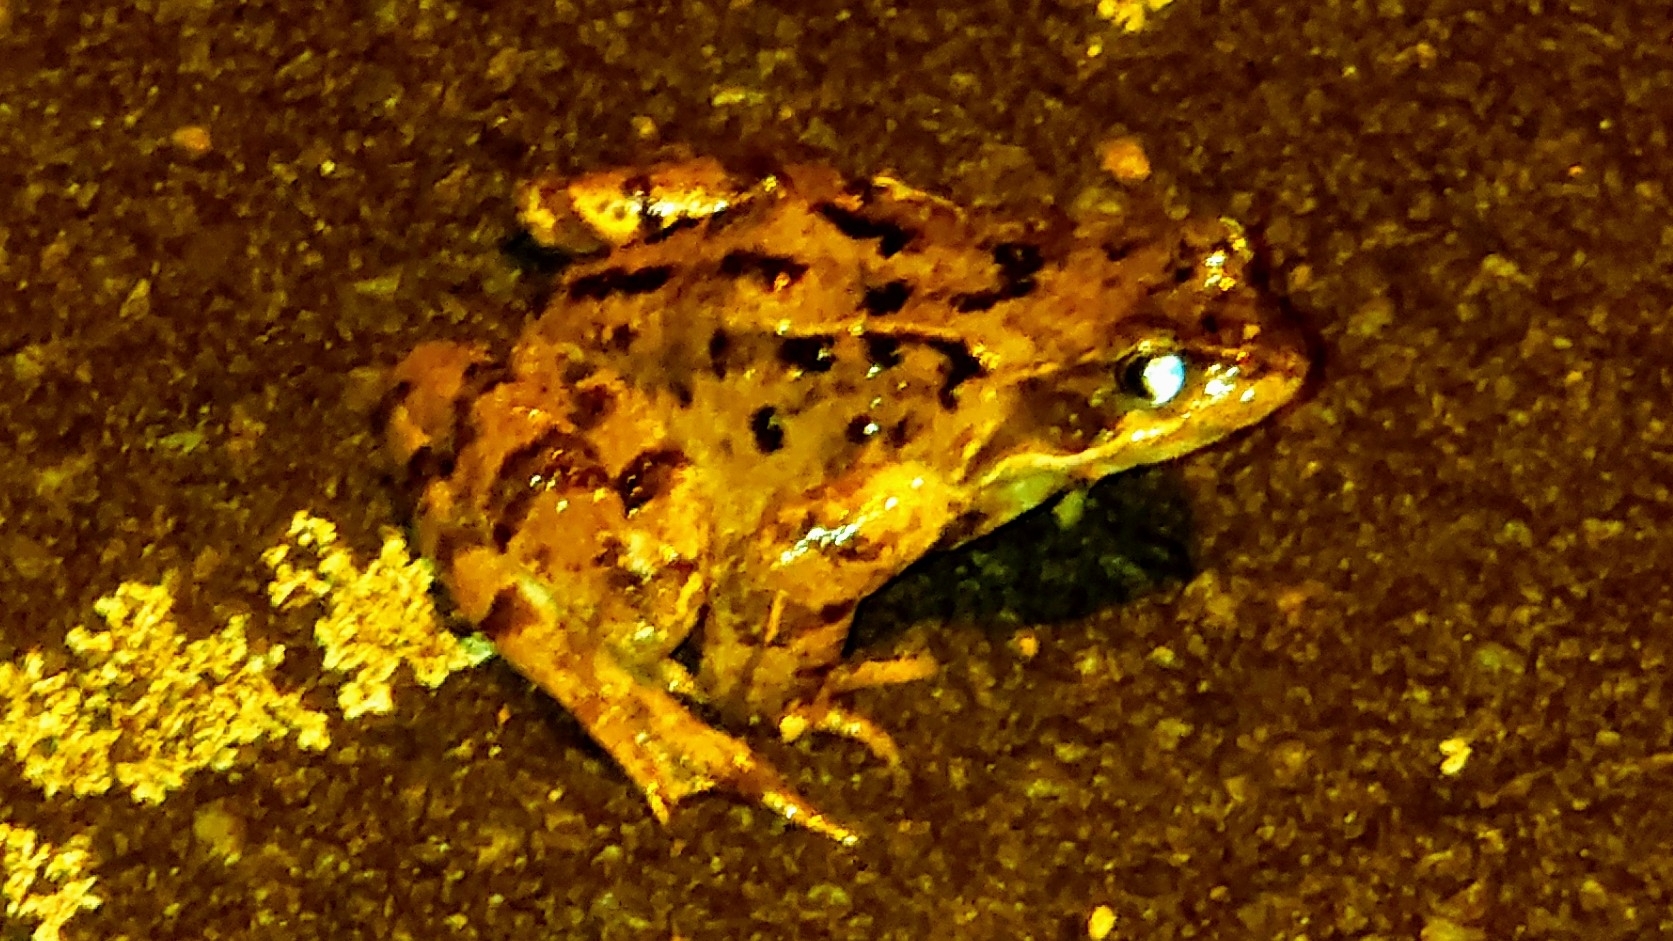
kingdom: Animalia
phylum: Chordata
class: Amphibia
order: Anura
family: Ranidae
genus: Rana
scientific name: Rana temporaria
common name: Common frog
